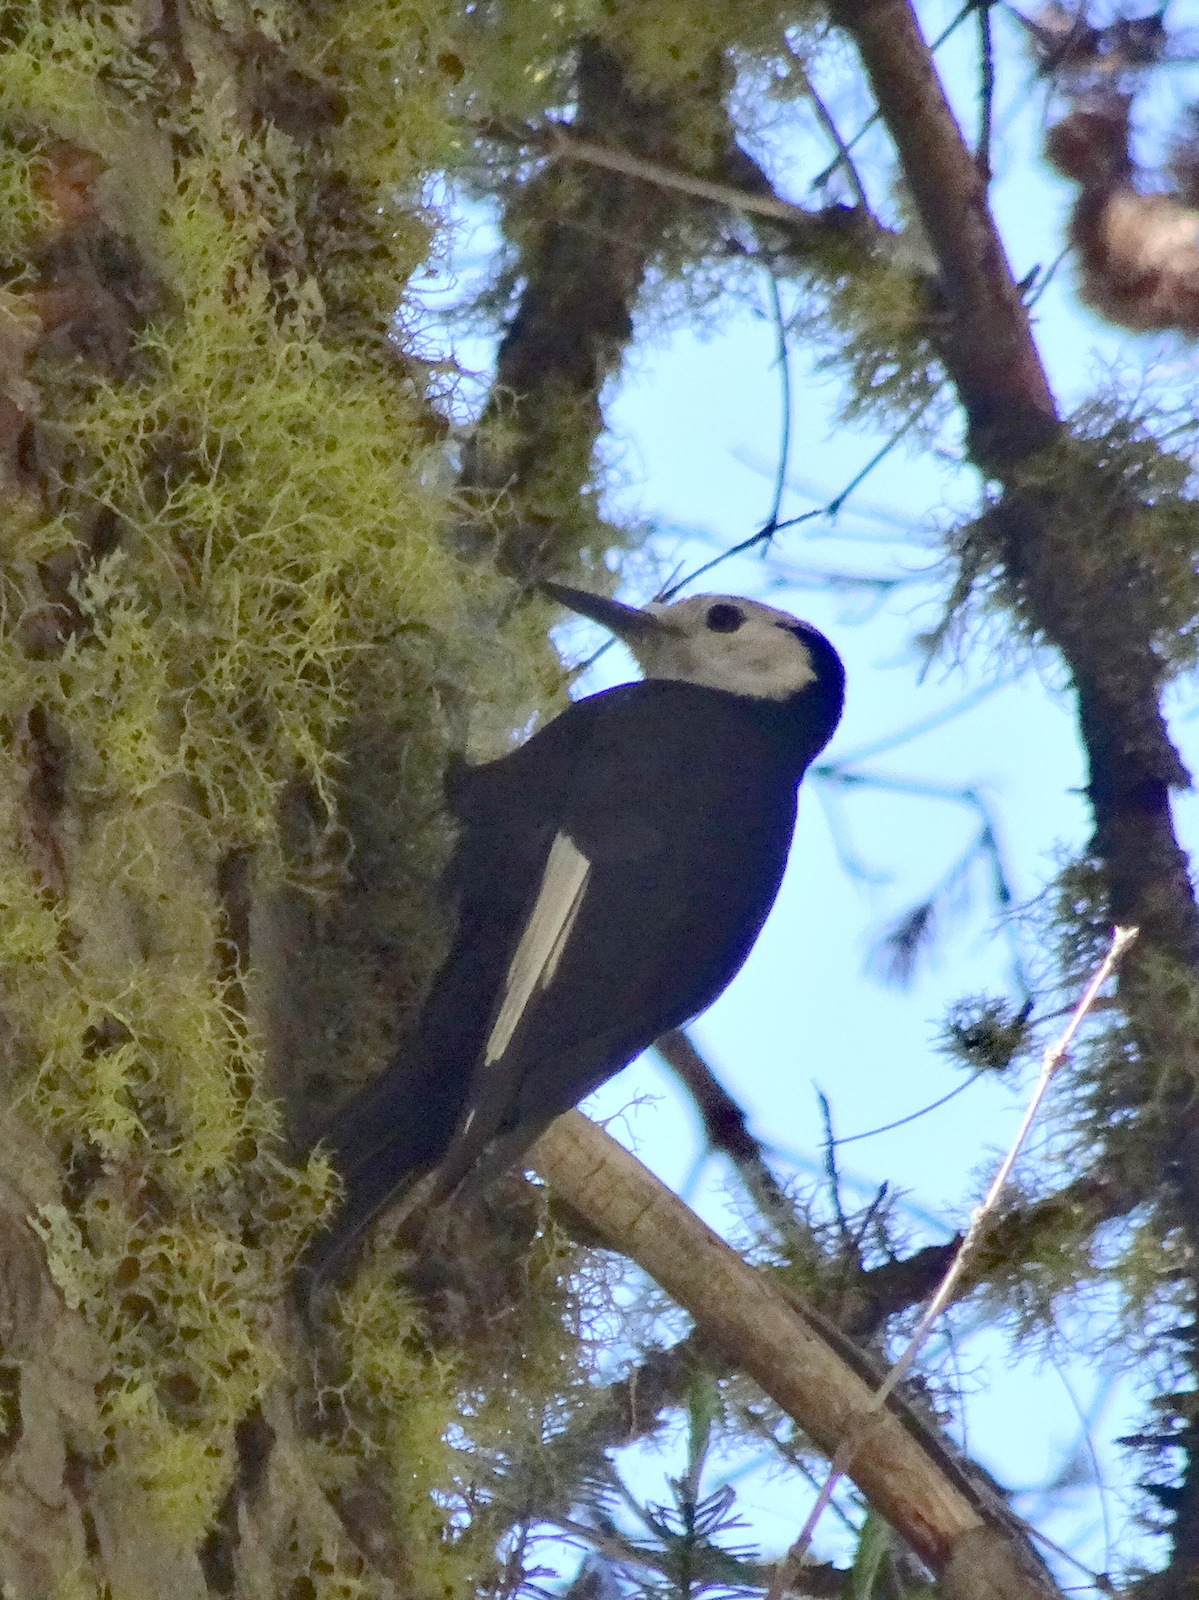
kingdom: Animalia
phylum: Chordata
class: Aves
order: Piciformes
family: Picidae
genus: Leuconotopicus
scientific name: Leuconotopicus albolarvatus
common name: White-headed woodpecker
